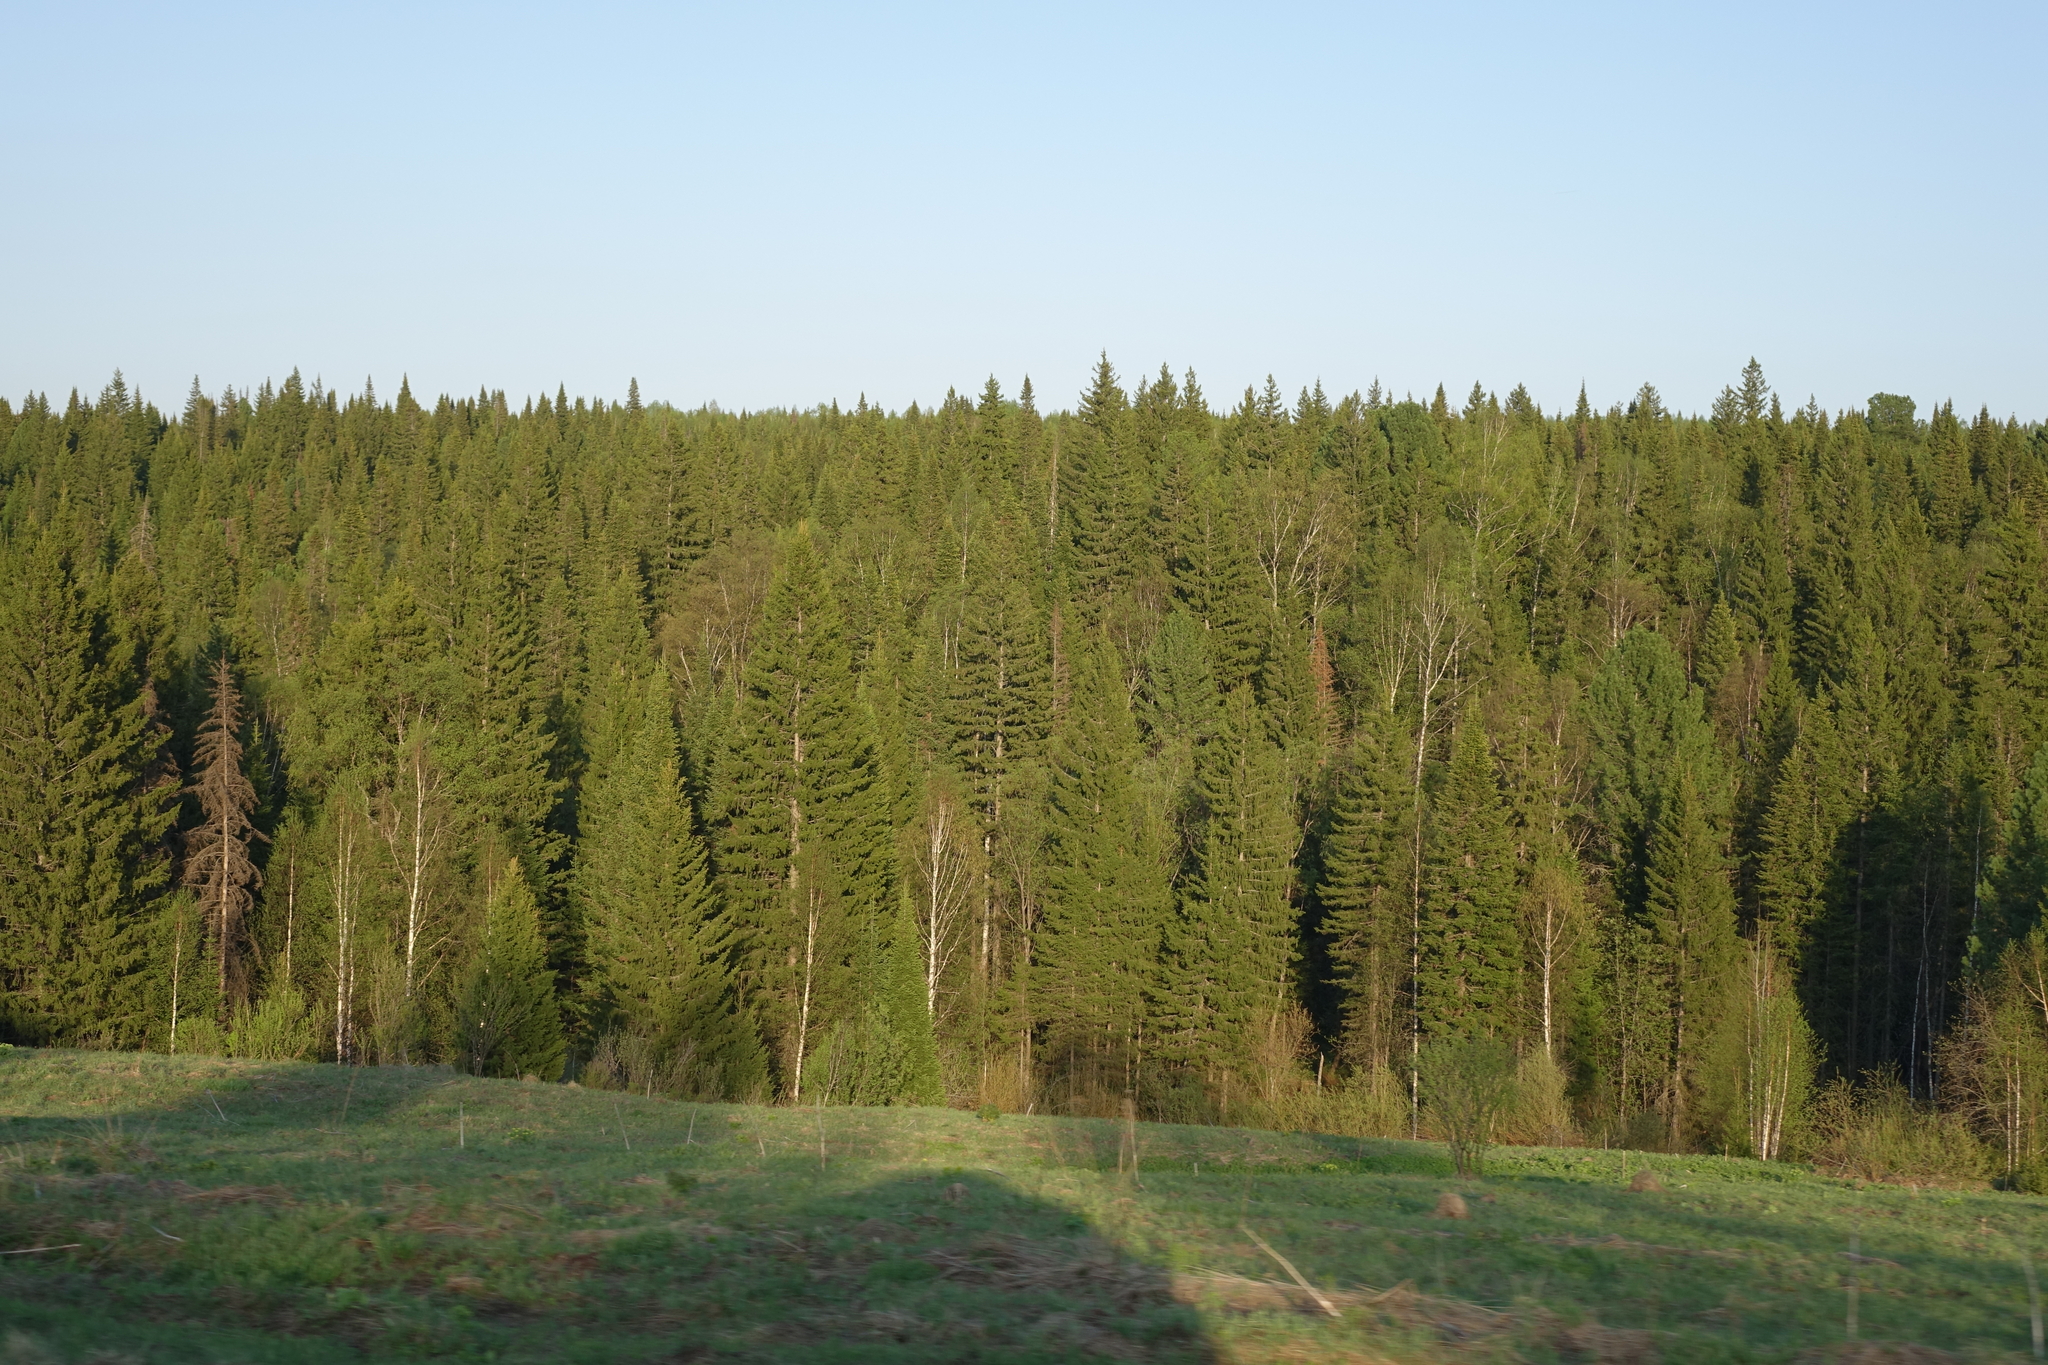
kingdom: Plantae
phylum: Tracheophyta
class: Pinopsida
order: Pinales
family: Pinaceae
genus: Picea
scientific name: Picea obovata
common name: Siberian spruce
